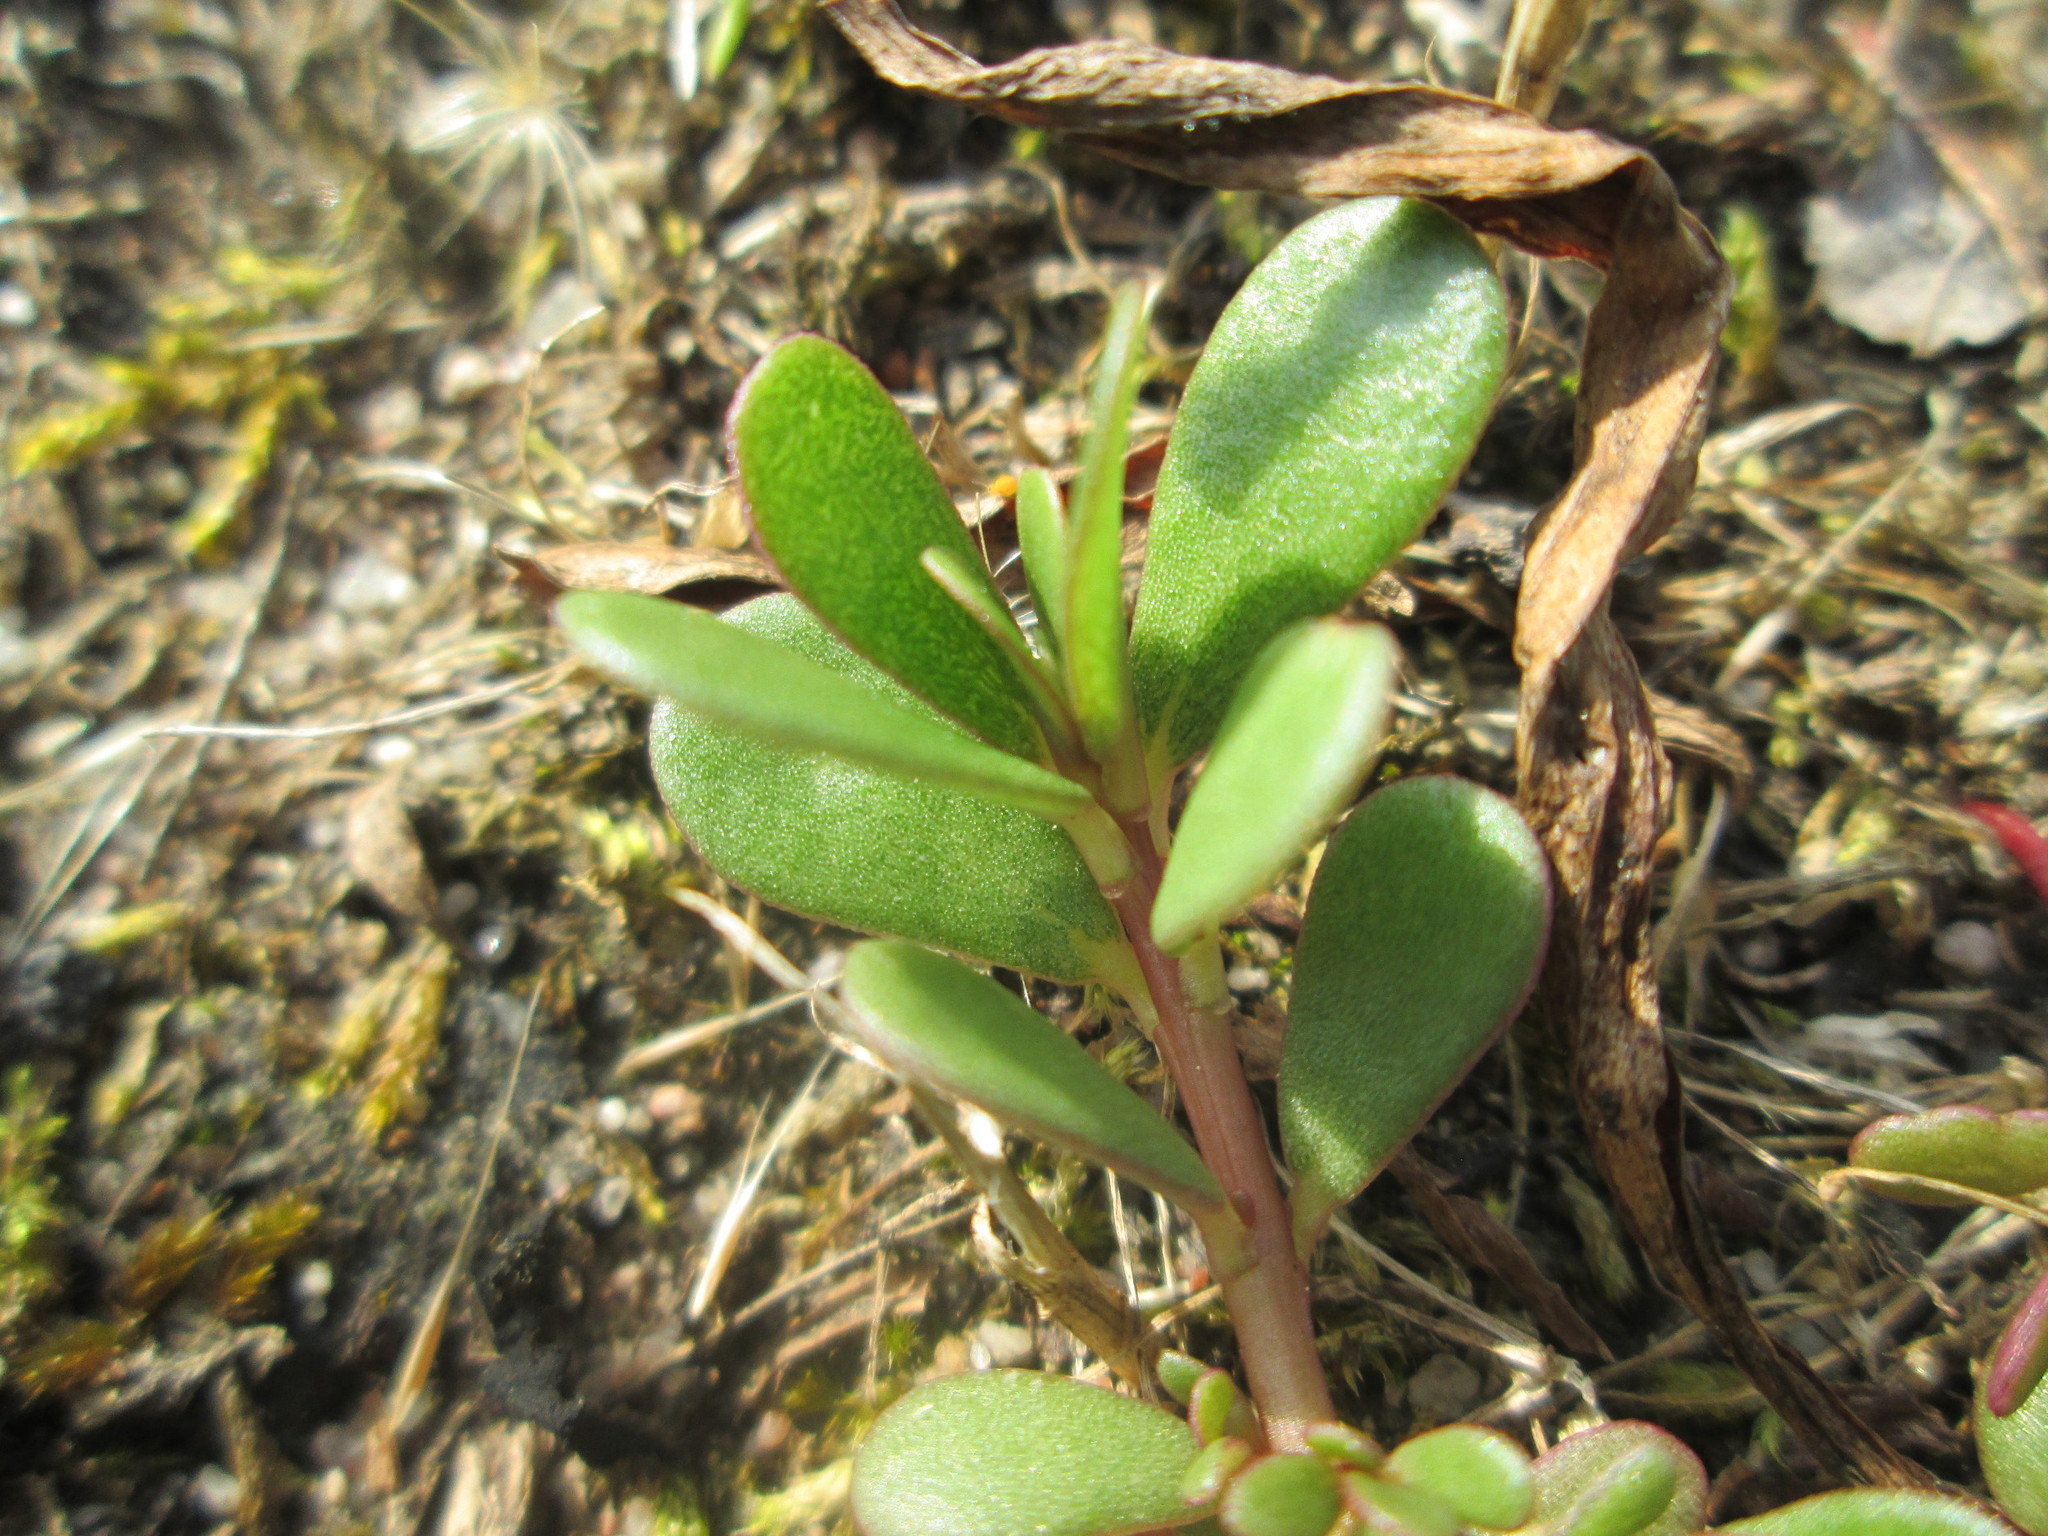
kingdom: Plantae
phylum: Tracheophyta
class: Magnoliopsida
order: Caryophyllales
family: Portulacaceae
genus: Portulaca
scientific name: Portulaca oleracea
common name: Common purslane
